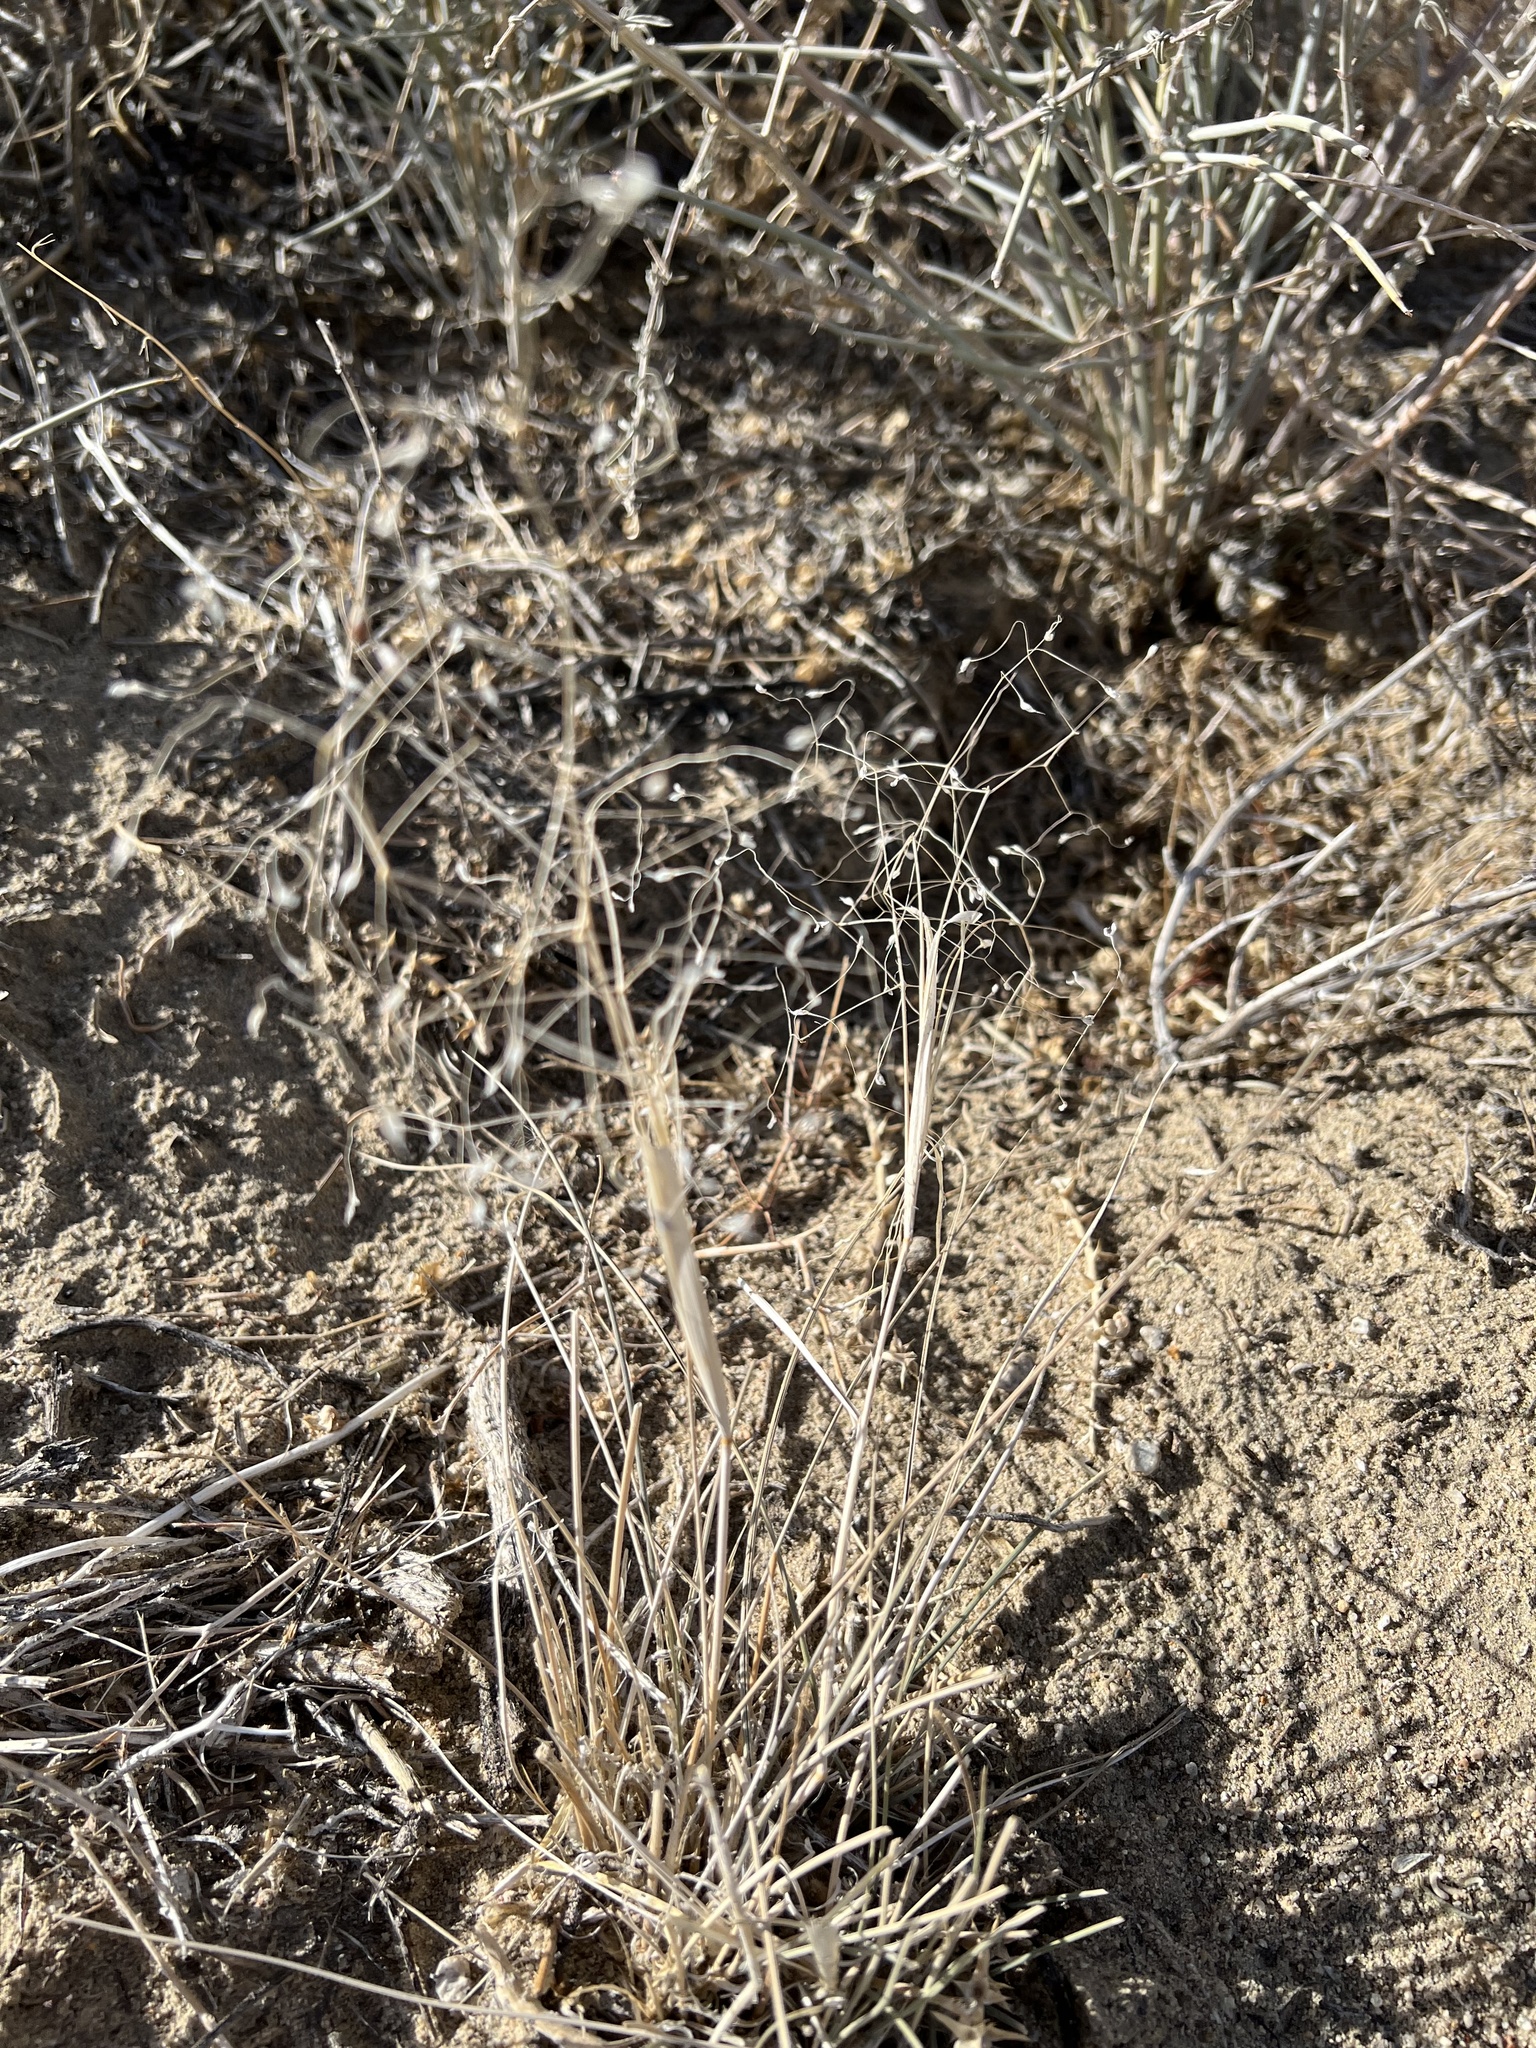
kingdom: Plantae
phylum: Tracheophyta
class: Liliopsida
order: Poales
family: Poaceae
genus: Eriocoma
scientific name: Eriocoma hymenoides
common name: Indian mountain ricegrass
